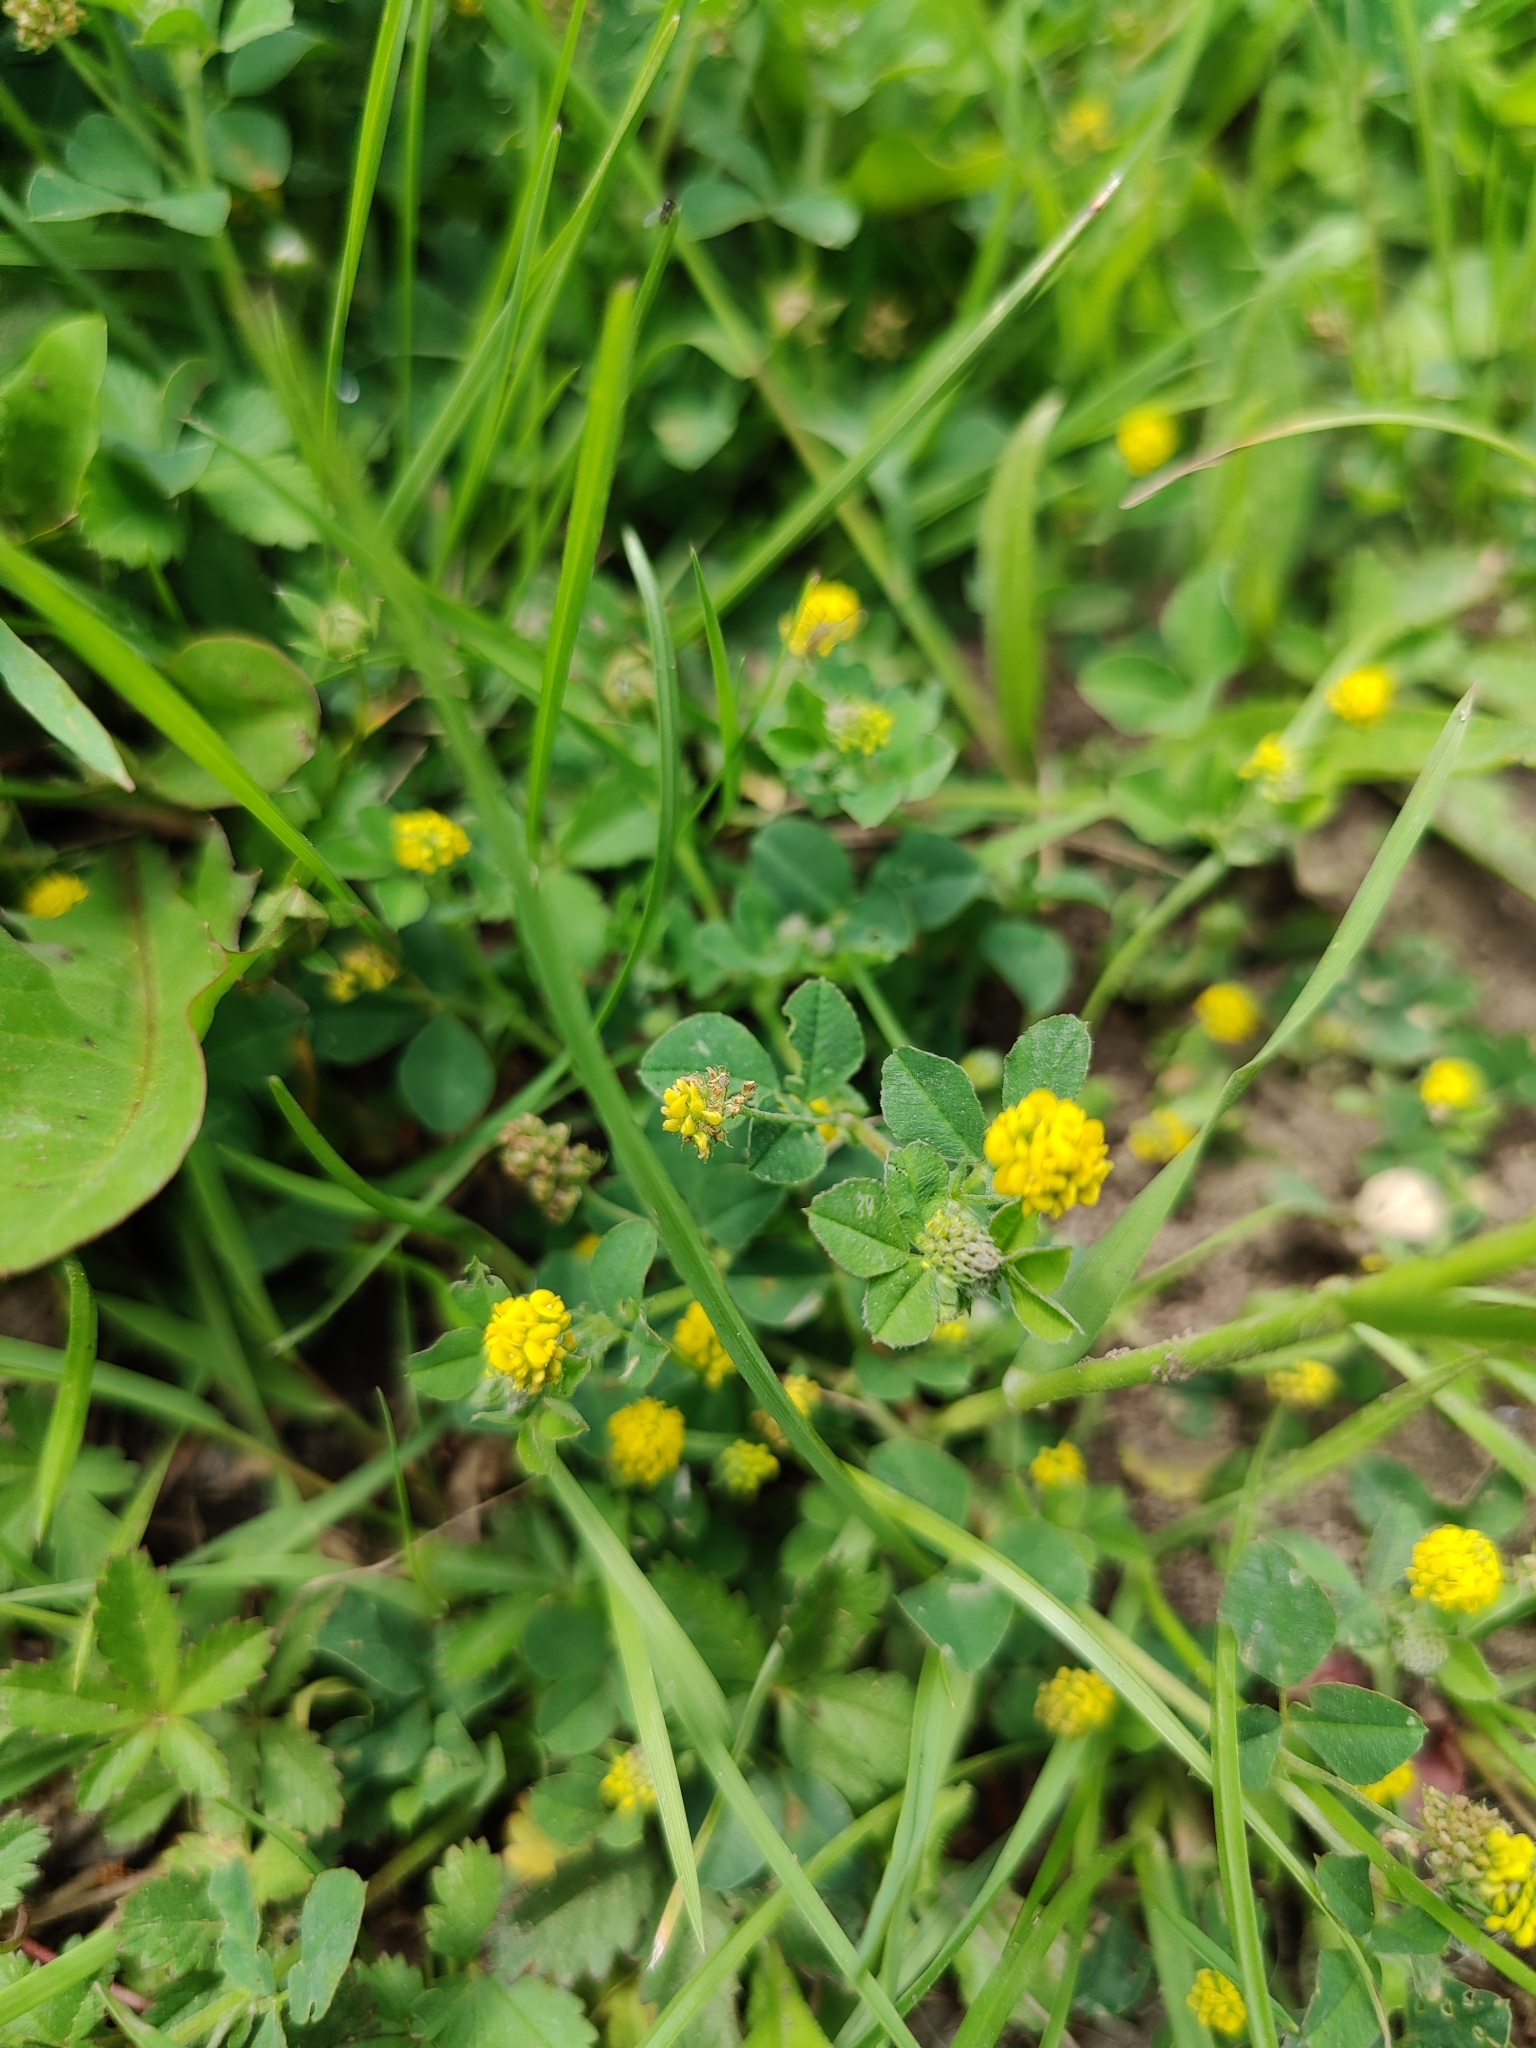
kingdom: Plantae
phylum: Tracheophyta
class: Magnoliopsida
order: Fabales
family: Fabaceae
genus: Medicago
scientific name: Medicago lupulina
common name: Black medick
